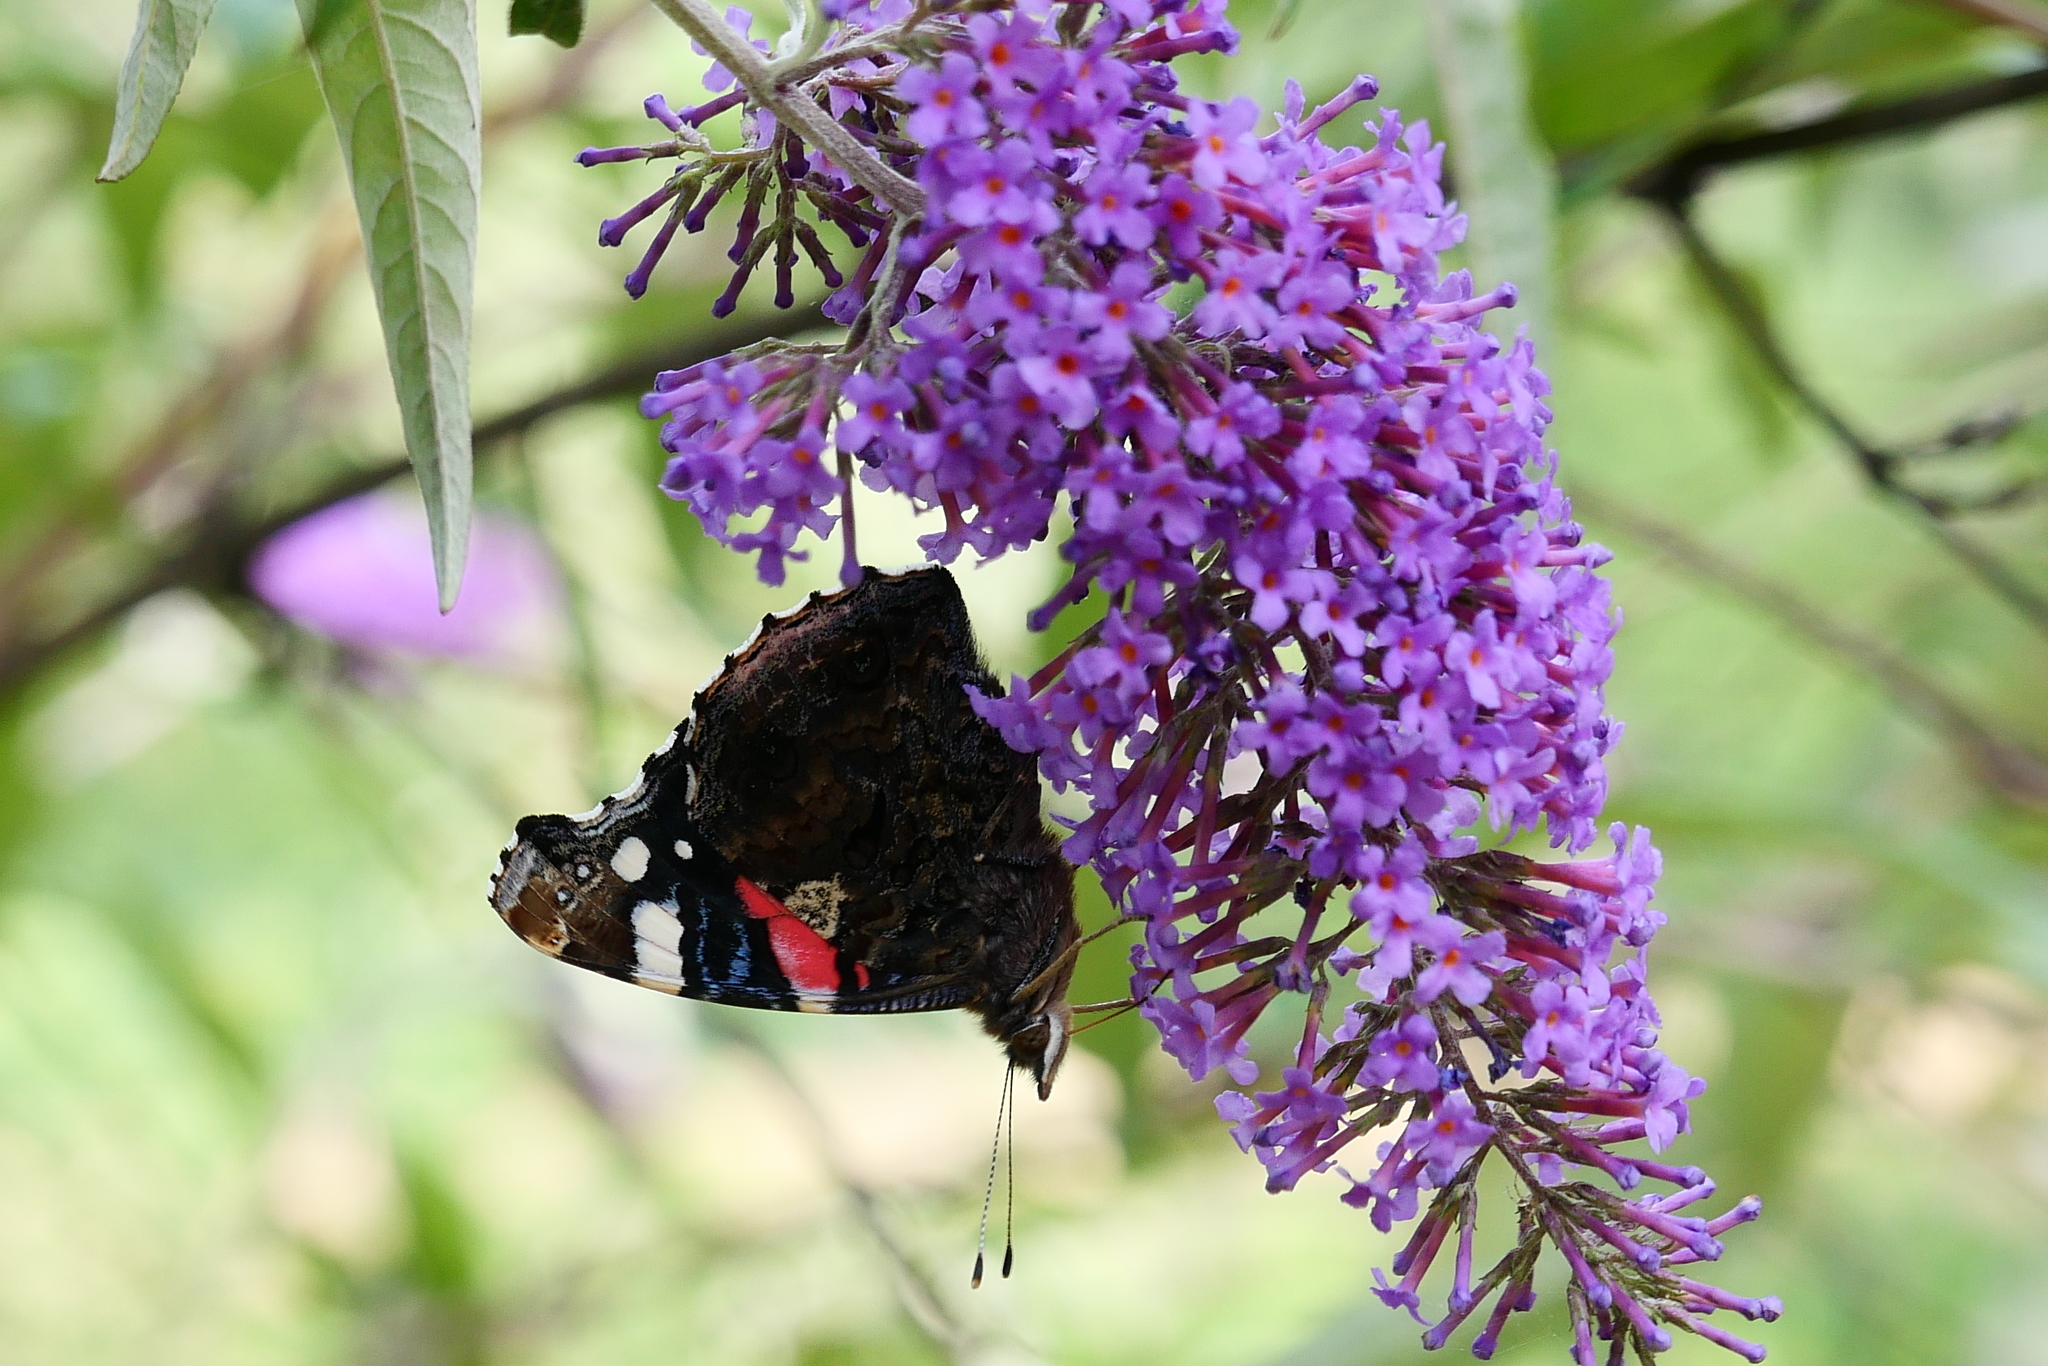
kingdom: Animalia
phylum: Arthropoda
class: Insecta
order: Lepidoptera
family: Nymphalidae
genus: Vanessa
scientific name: Vanessa atalanta
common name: Red admiral
